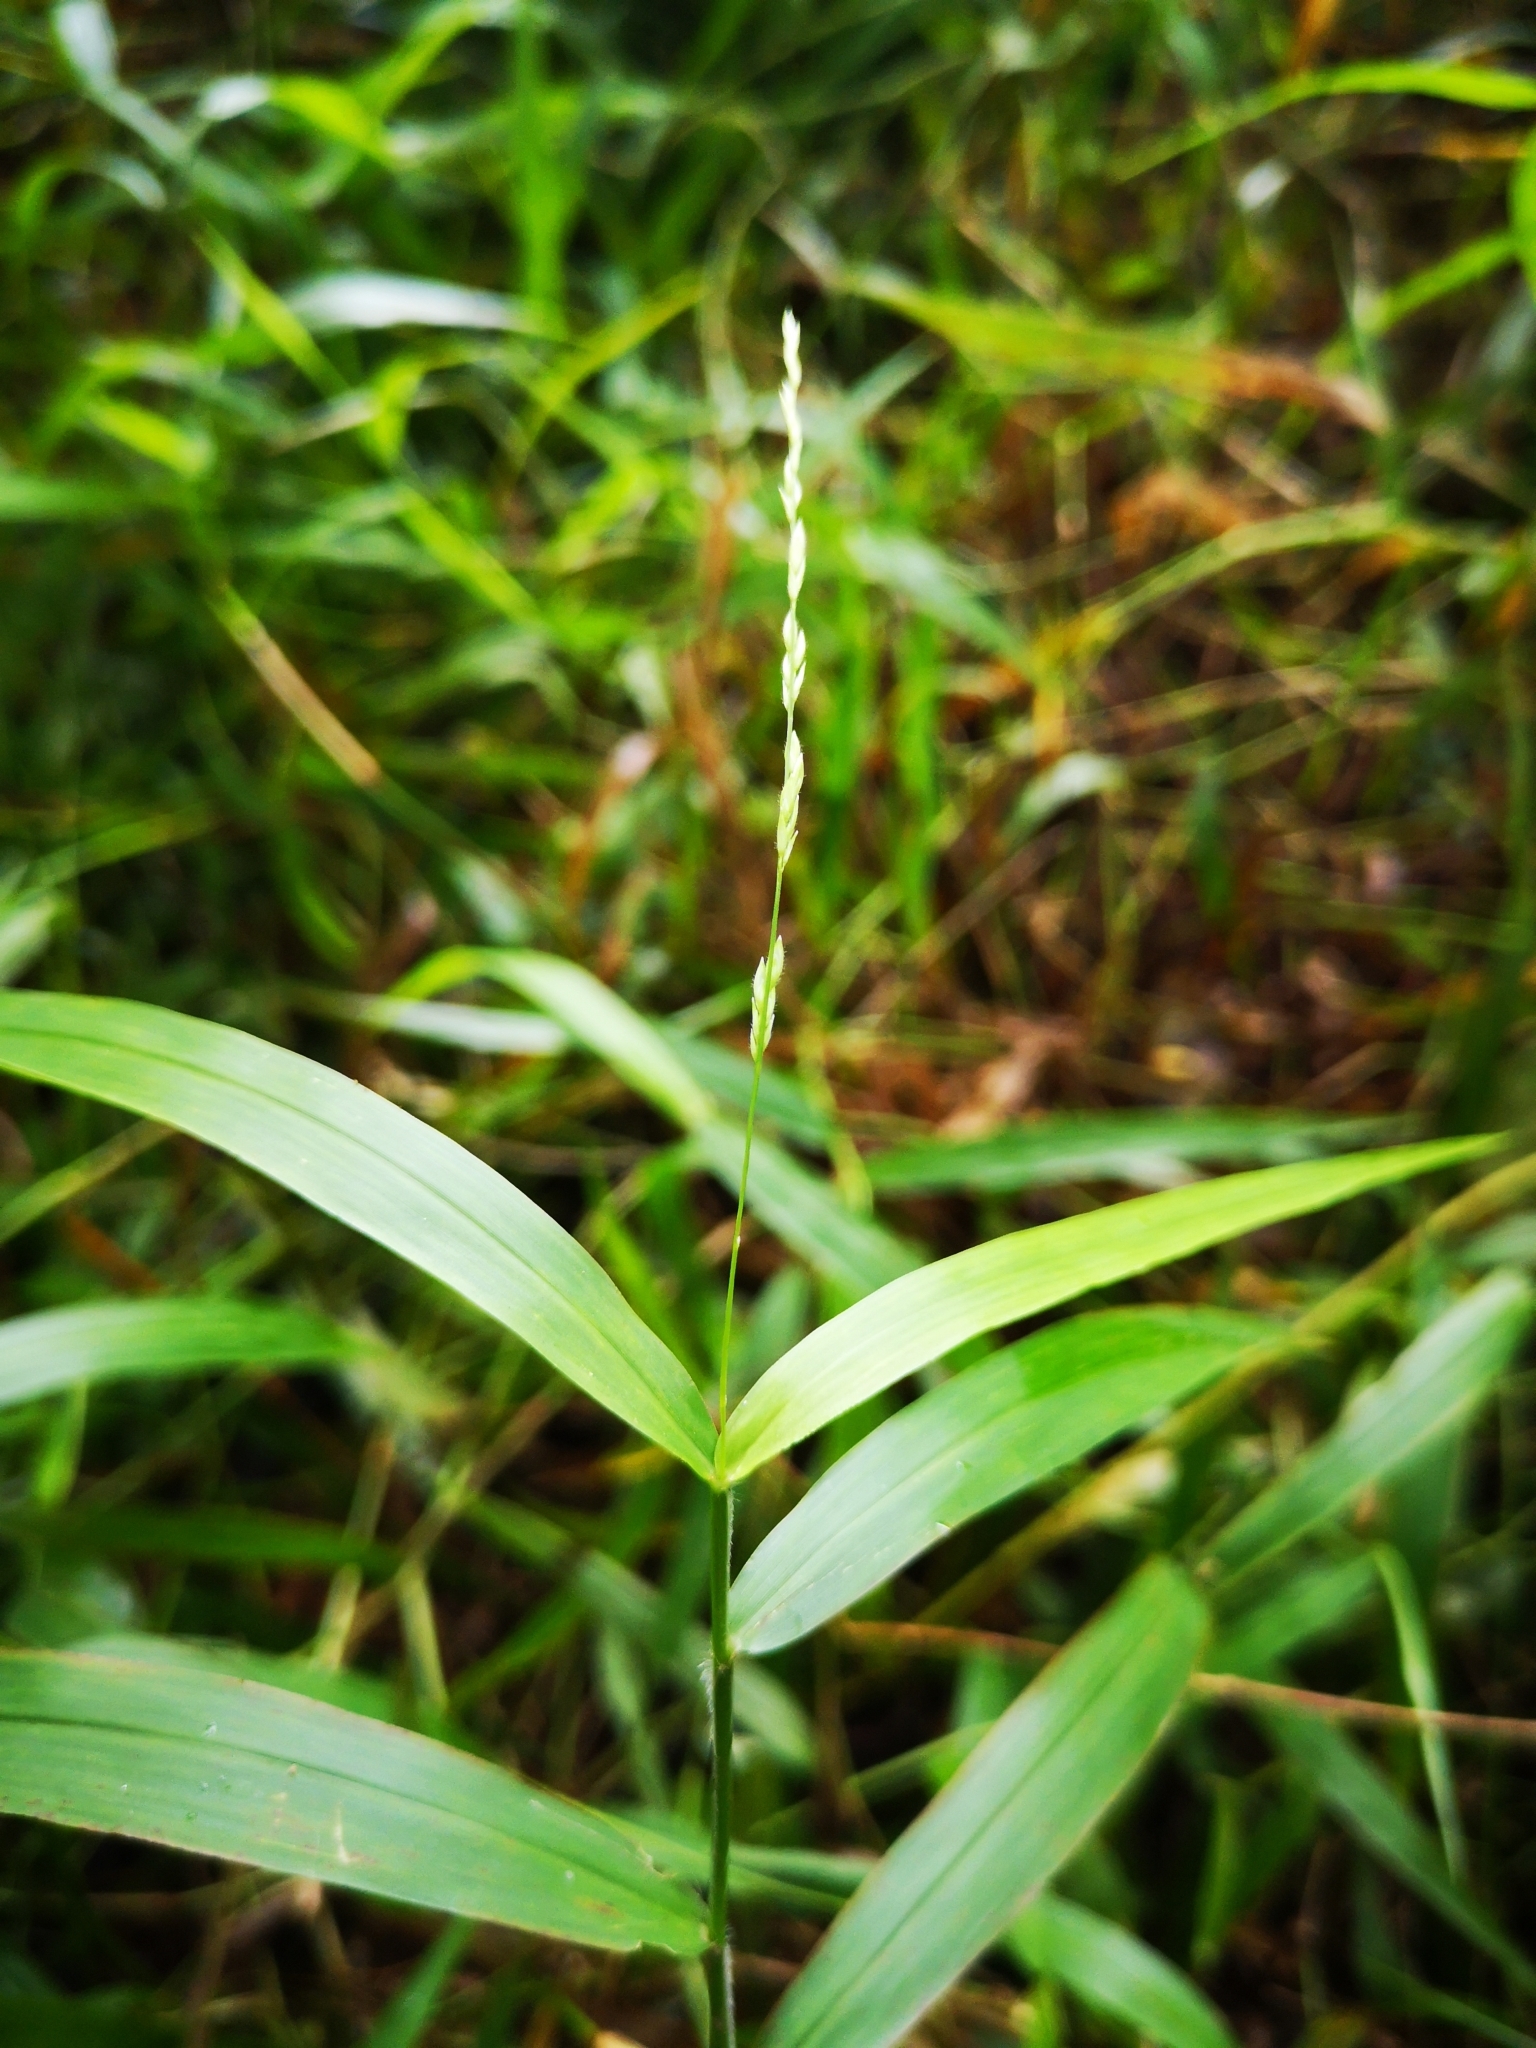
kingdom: Plantae
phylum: Tracheophyta
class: Liliopsida
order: Poales
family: Poaceae
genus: Cyrtococcum
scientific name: Cyrtococcum patens
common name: Broad-leaved bowgrass
